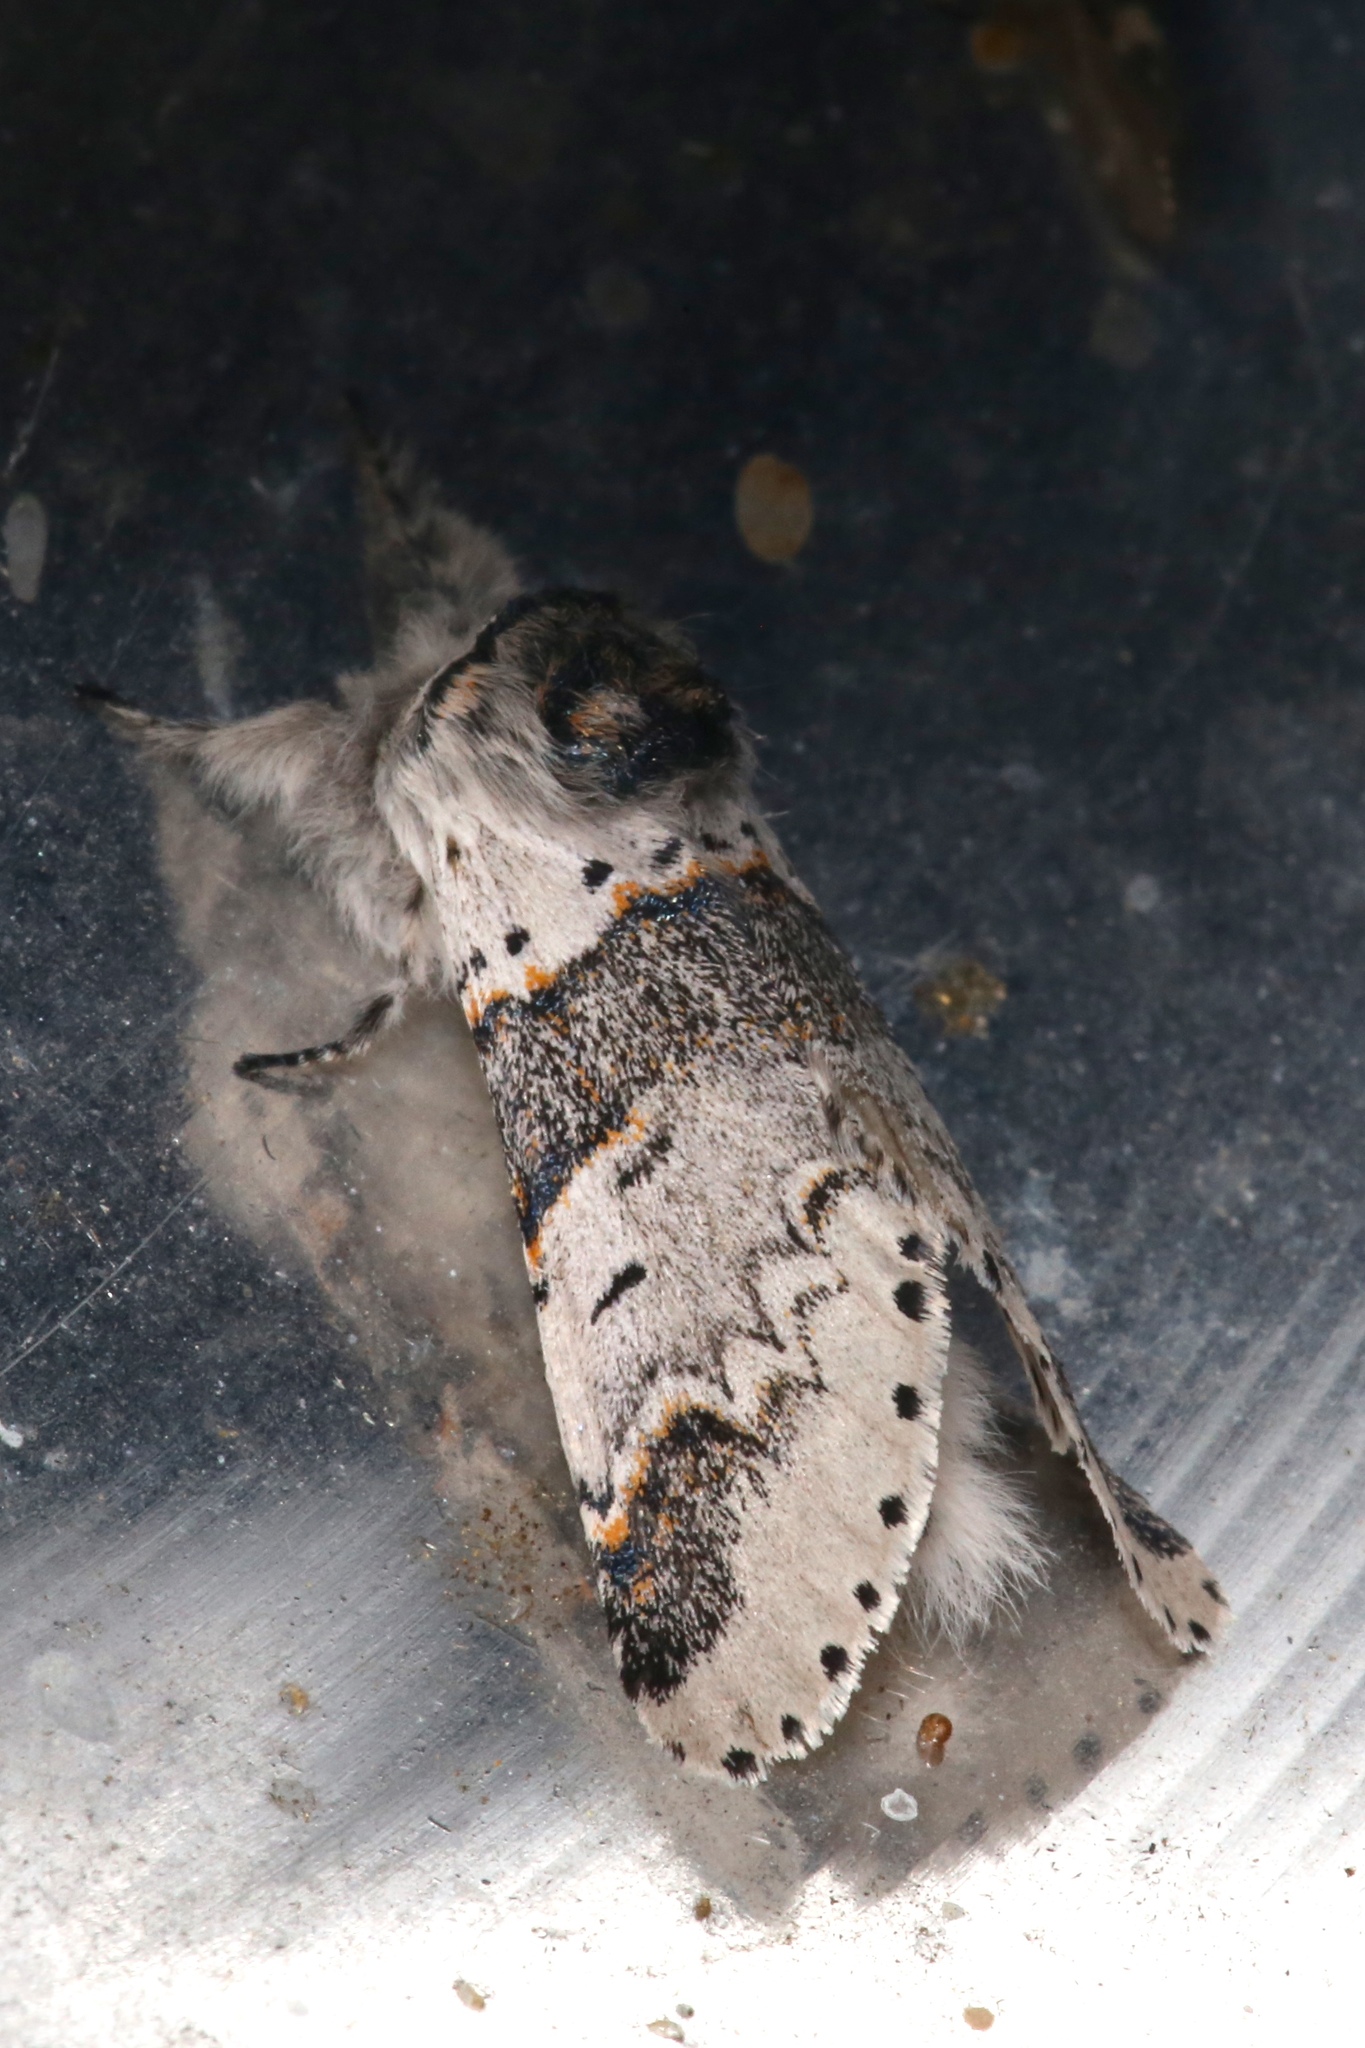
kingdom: Animalia
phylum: Arthropoda
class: Insecta
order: Lepidoptera
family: Notodontidae
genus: Furcula
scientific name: Furcula occidentalis
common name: Western furcula moth
